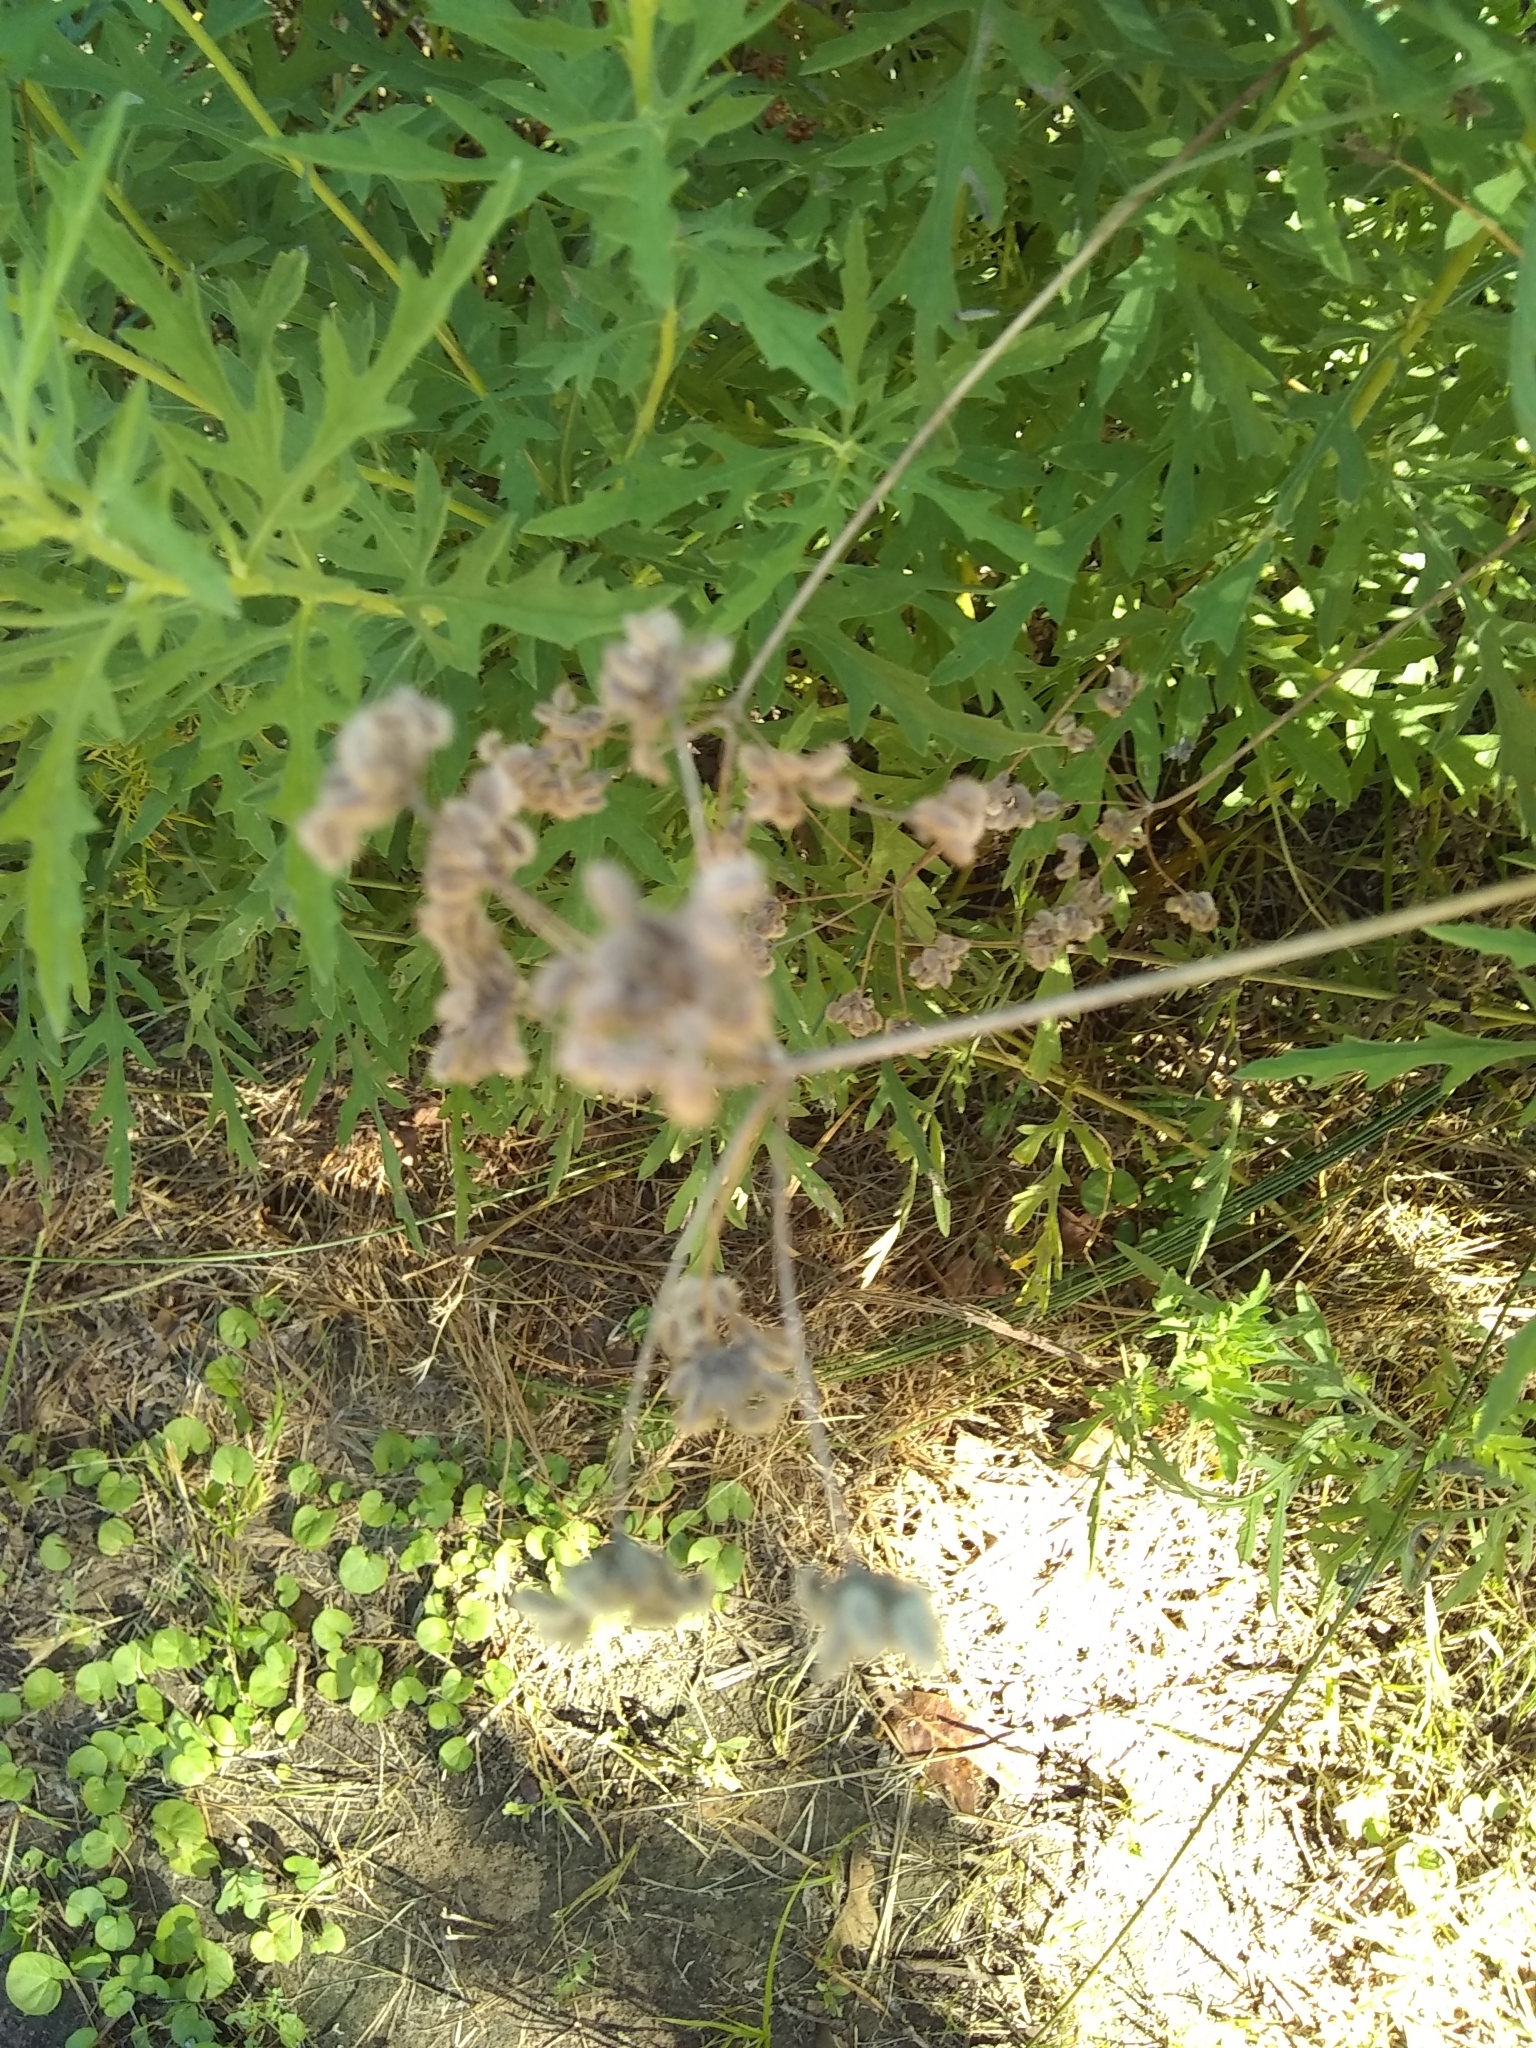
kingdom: Plantae
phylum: Tracheophyta
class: Magnoliopsida
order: Apiales
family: Apiaceae
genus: Torilis
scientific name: Torilis arvensis
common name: Spreading hedge-parsley
